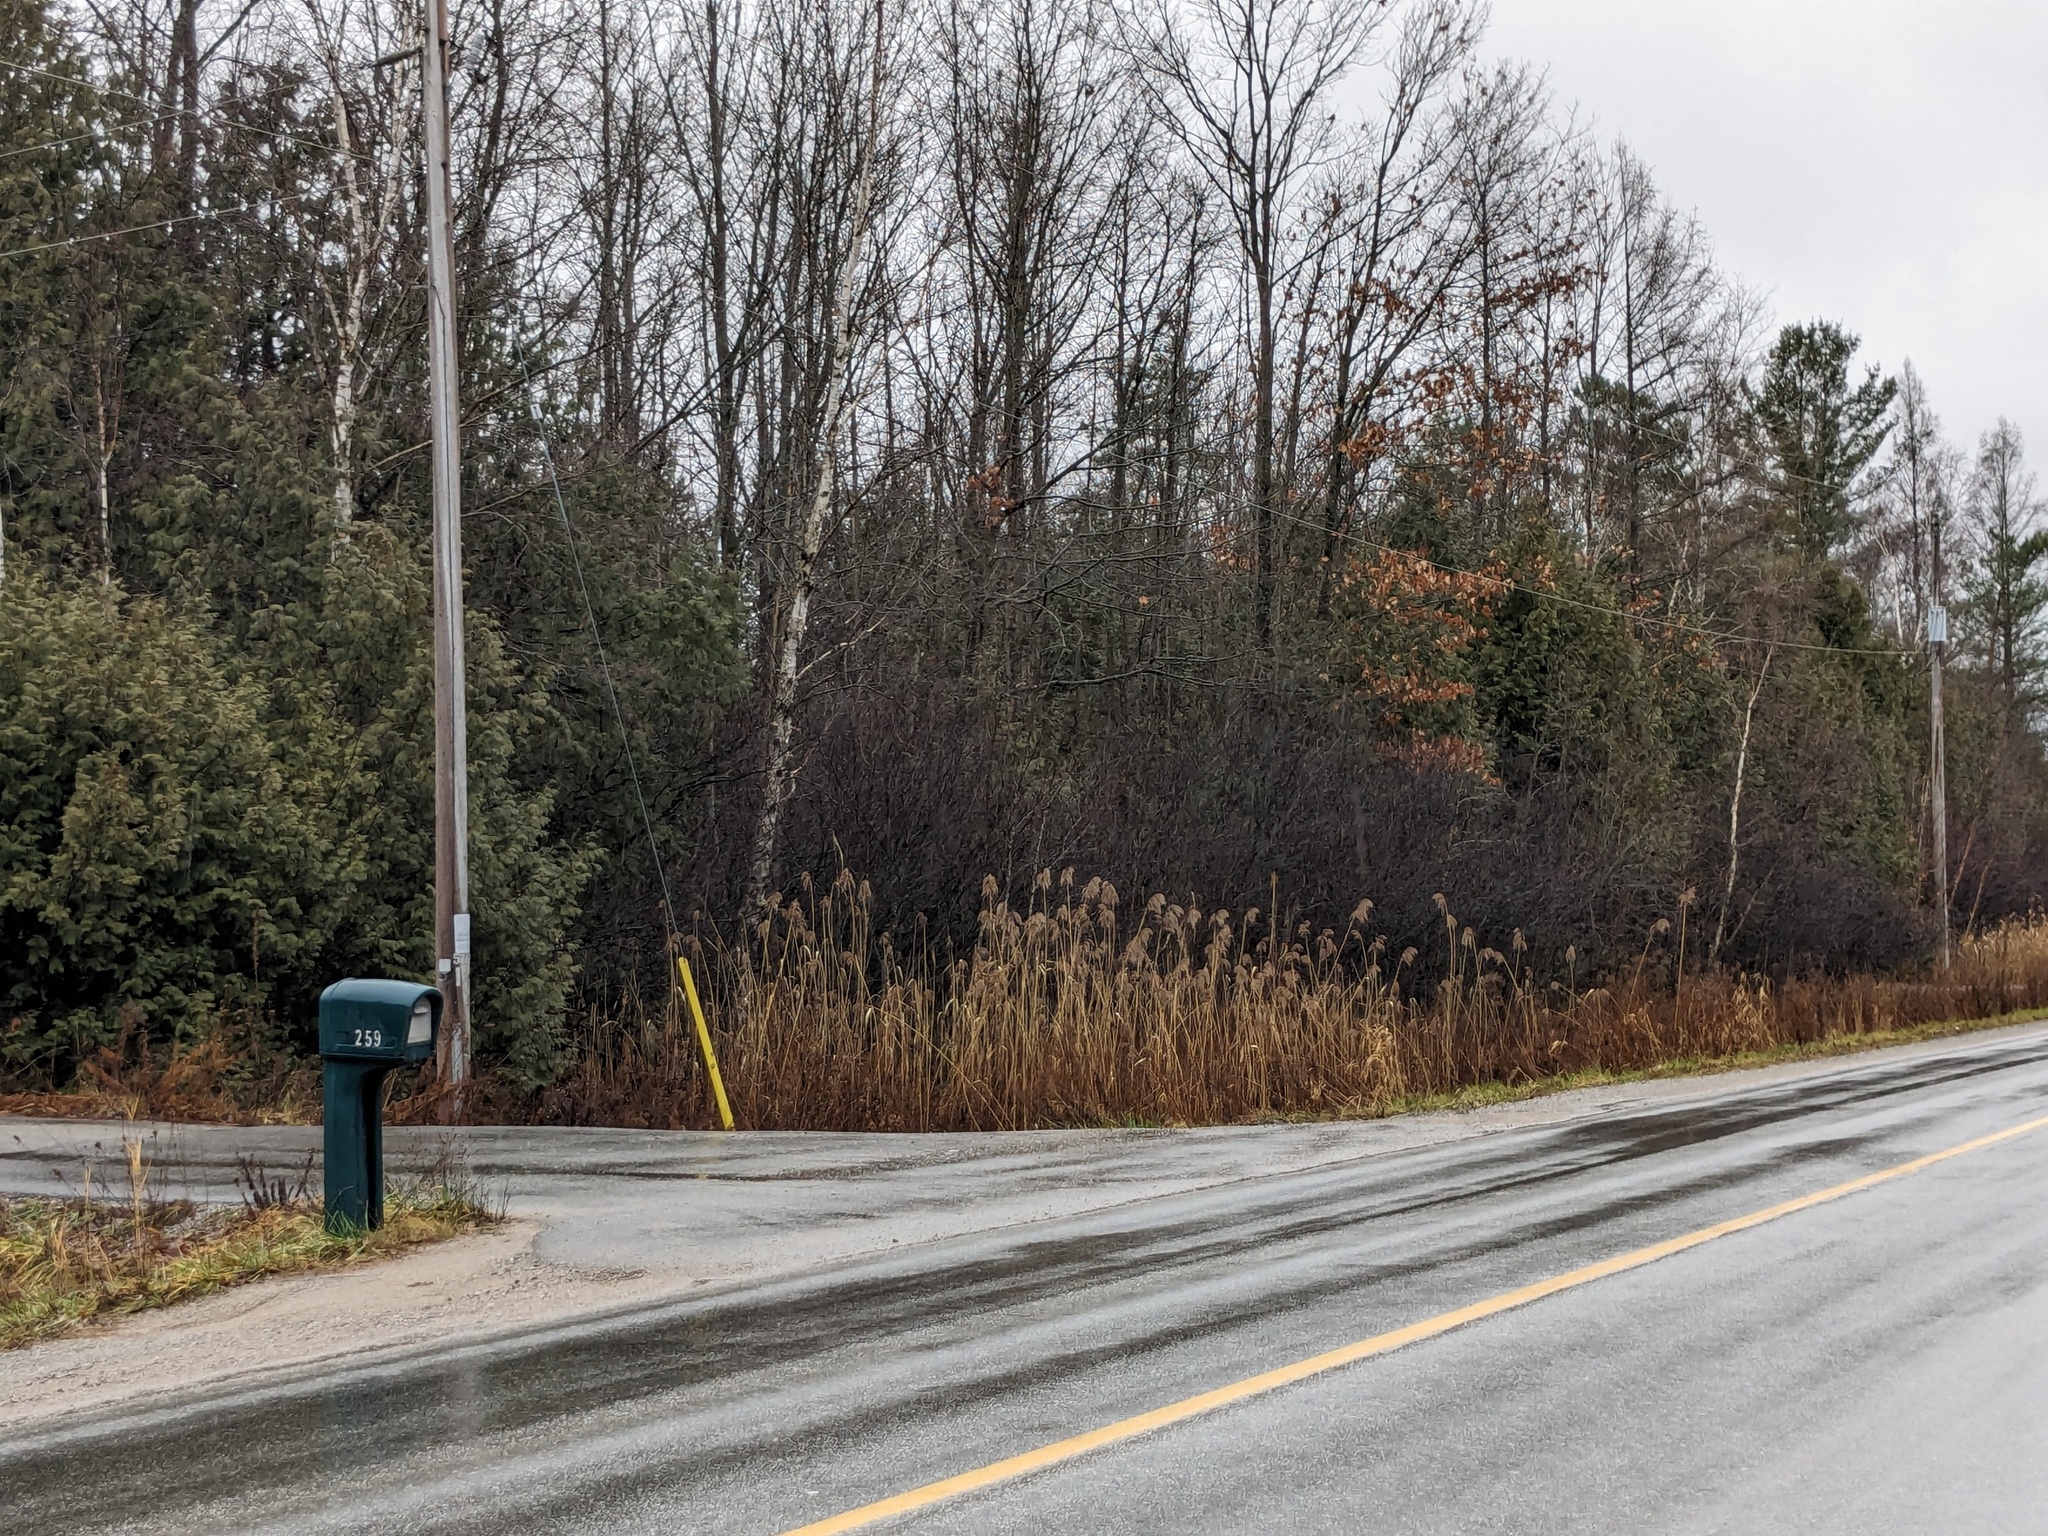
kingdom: Plantae
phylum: Tracheophyta
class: Liliopsida
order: Poales
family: Poaceae
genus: Phragmites
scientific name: Phragmites australis
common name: Common reed
